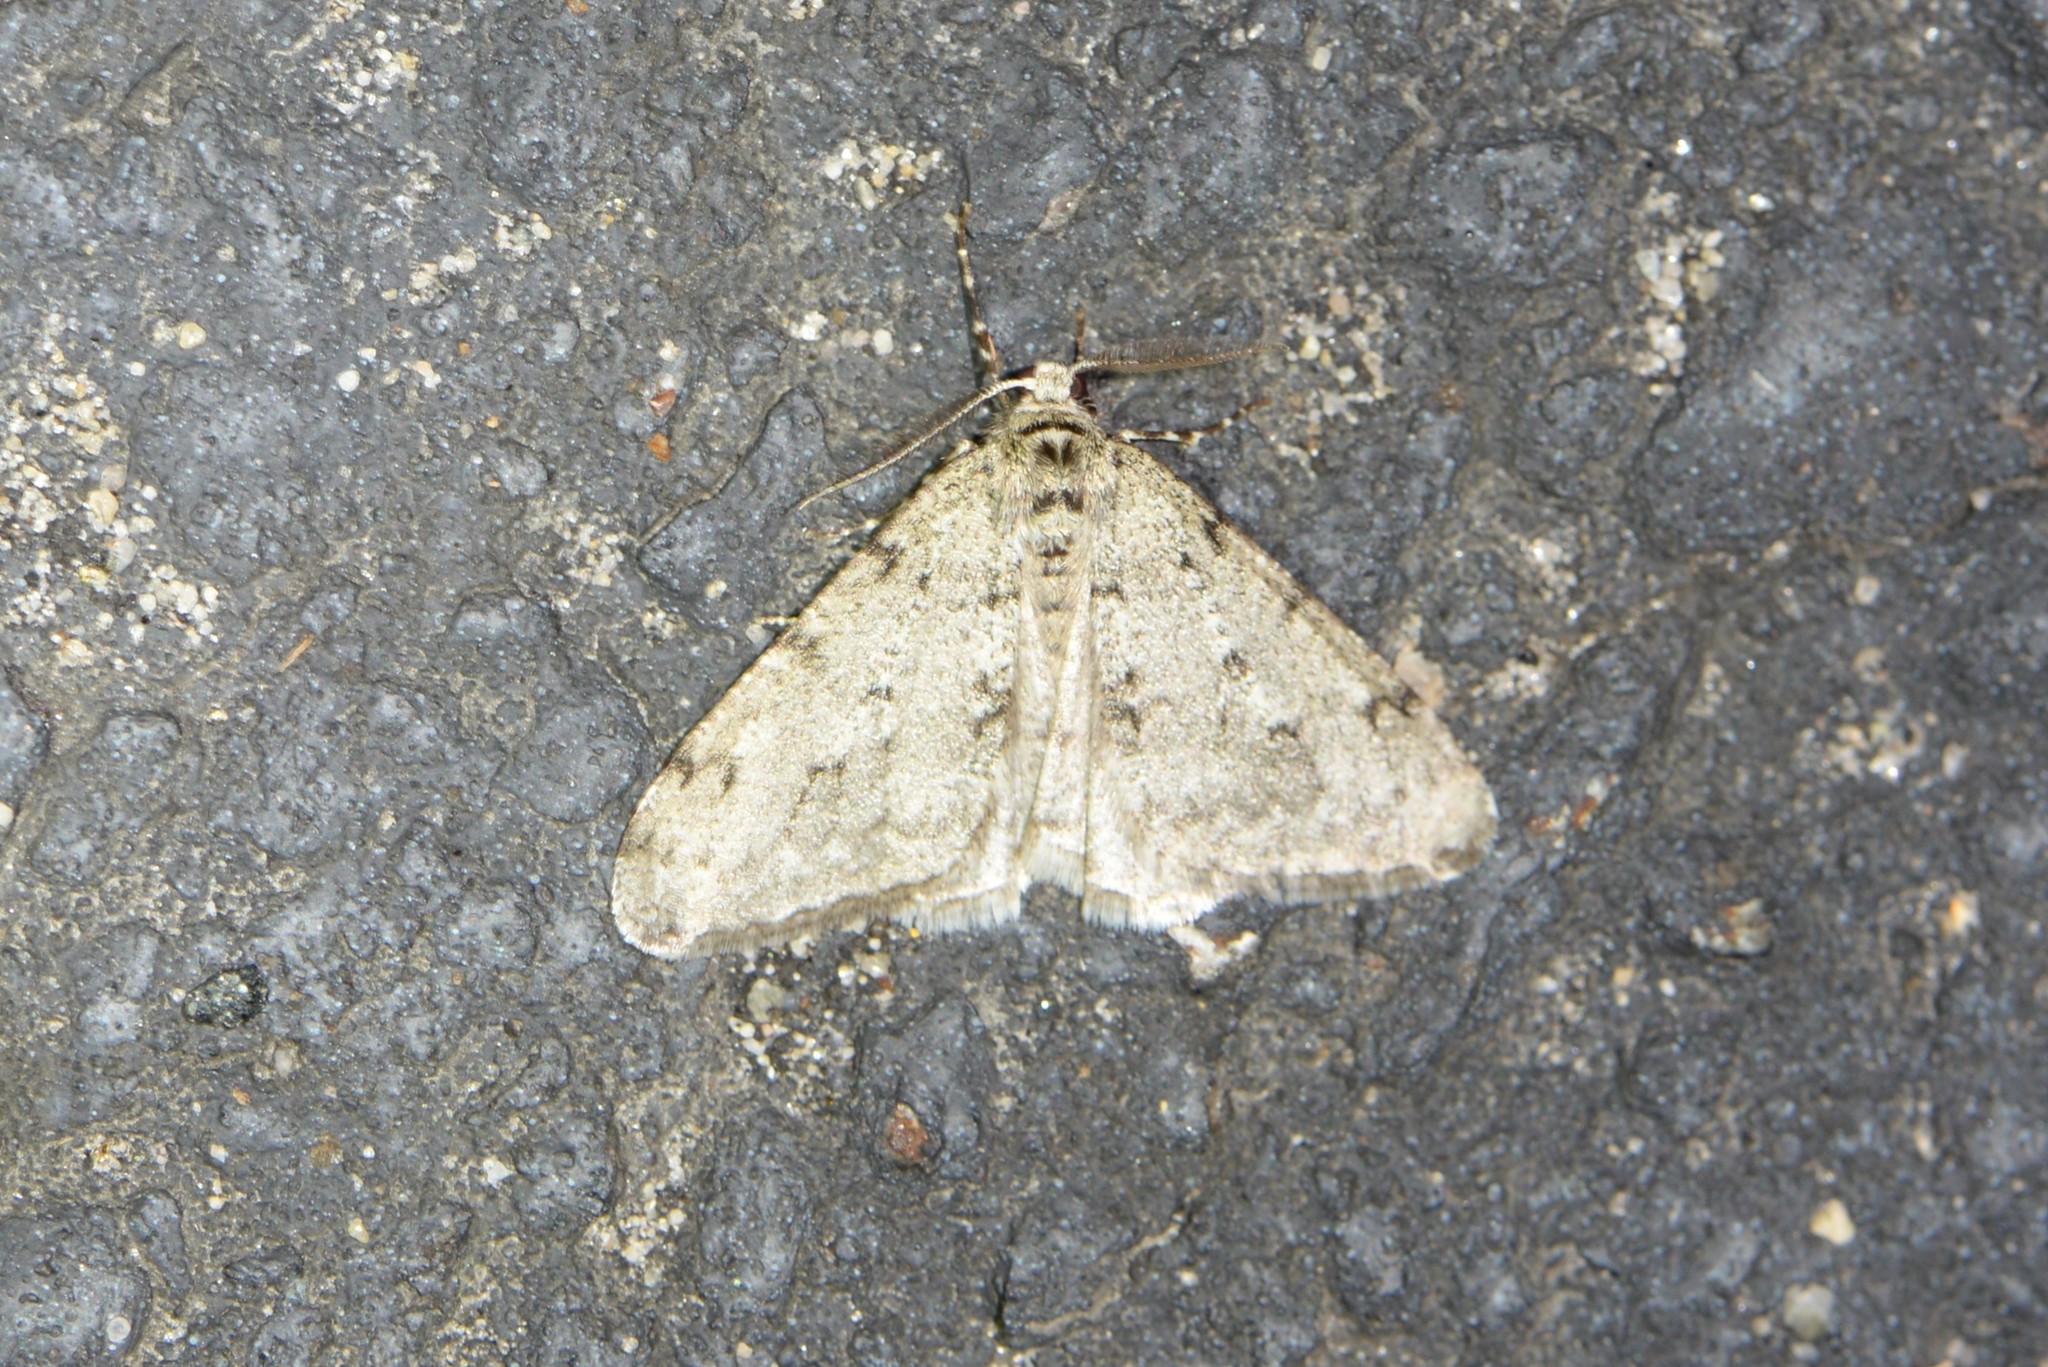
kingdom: Animalia
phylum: Arthropoda
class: Insecta
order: Lepidoptera
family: Geometridae
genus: Phigalia
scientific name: Phigalia strigataria
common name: Small phigalia
